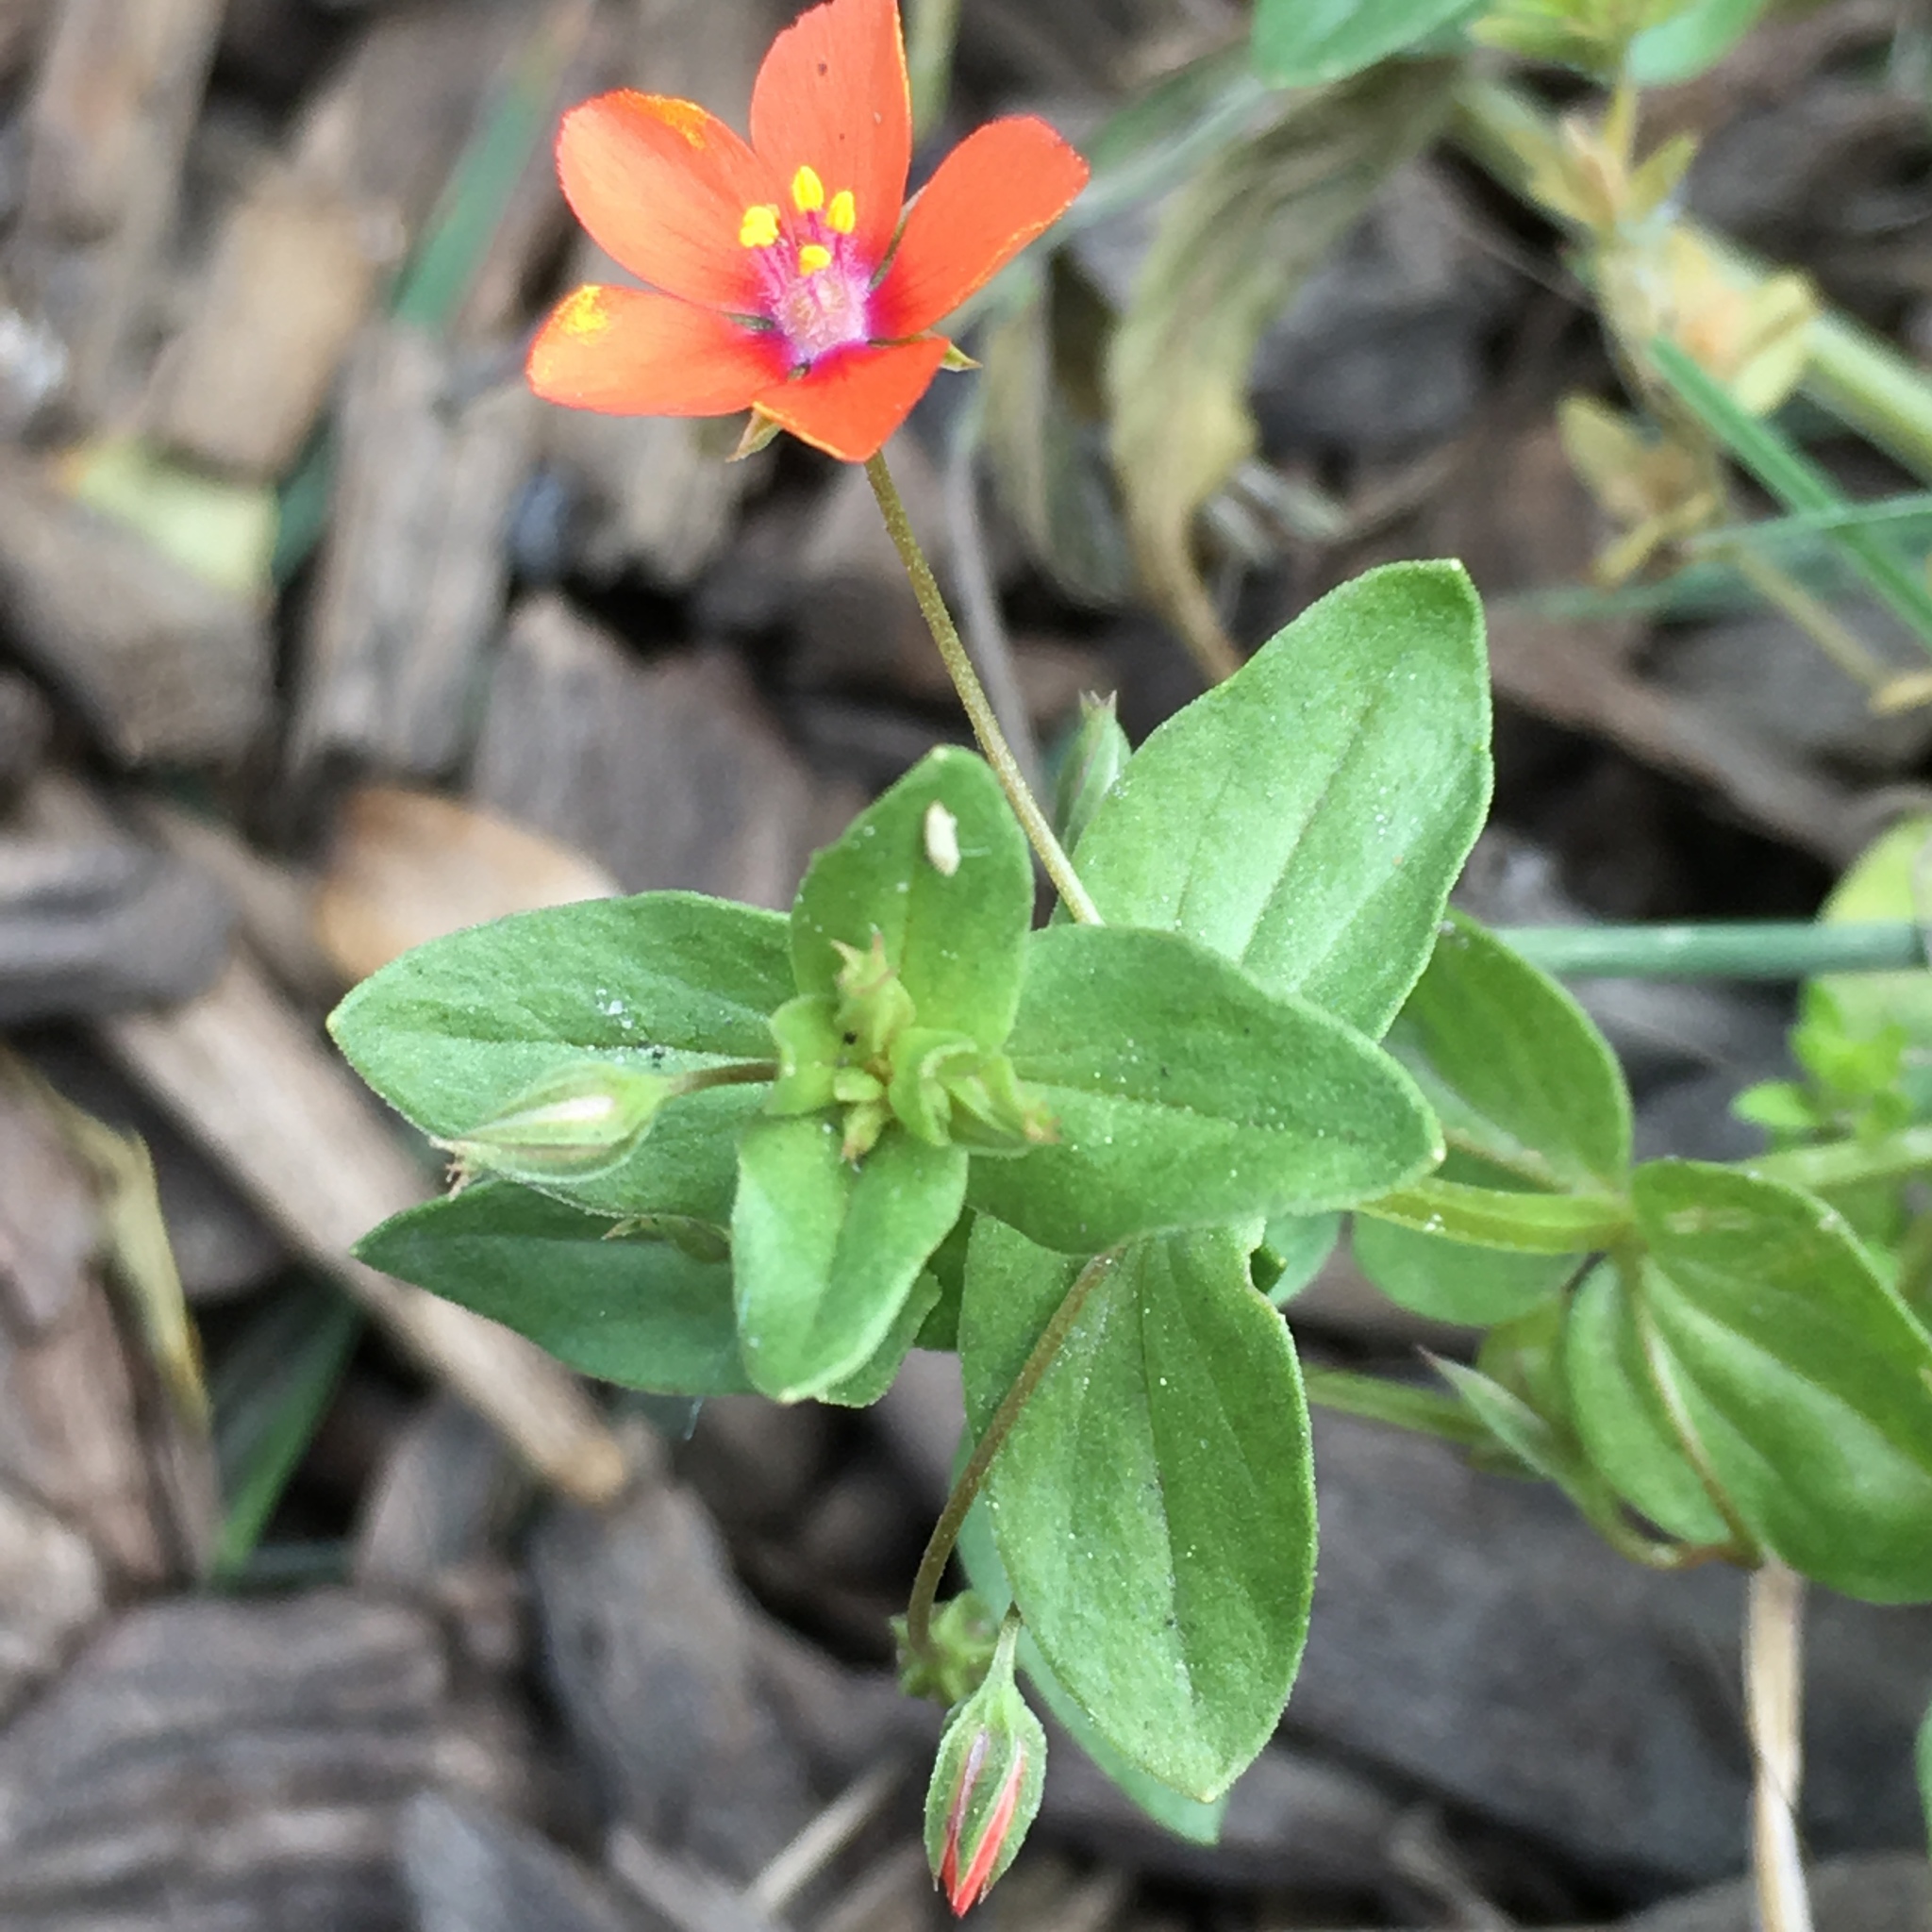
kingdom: Plantae
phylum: Tracheophyta
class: Magnoliopsida
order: Ericales
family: Primulaceae
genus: Lysimachia
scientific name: Lysimachia arvensis
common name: Scarlet pimpernel
